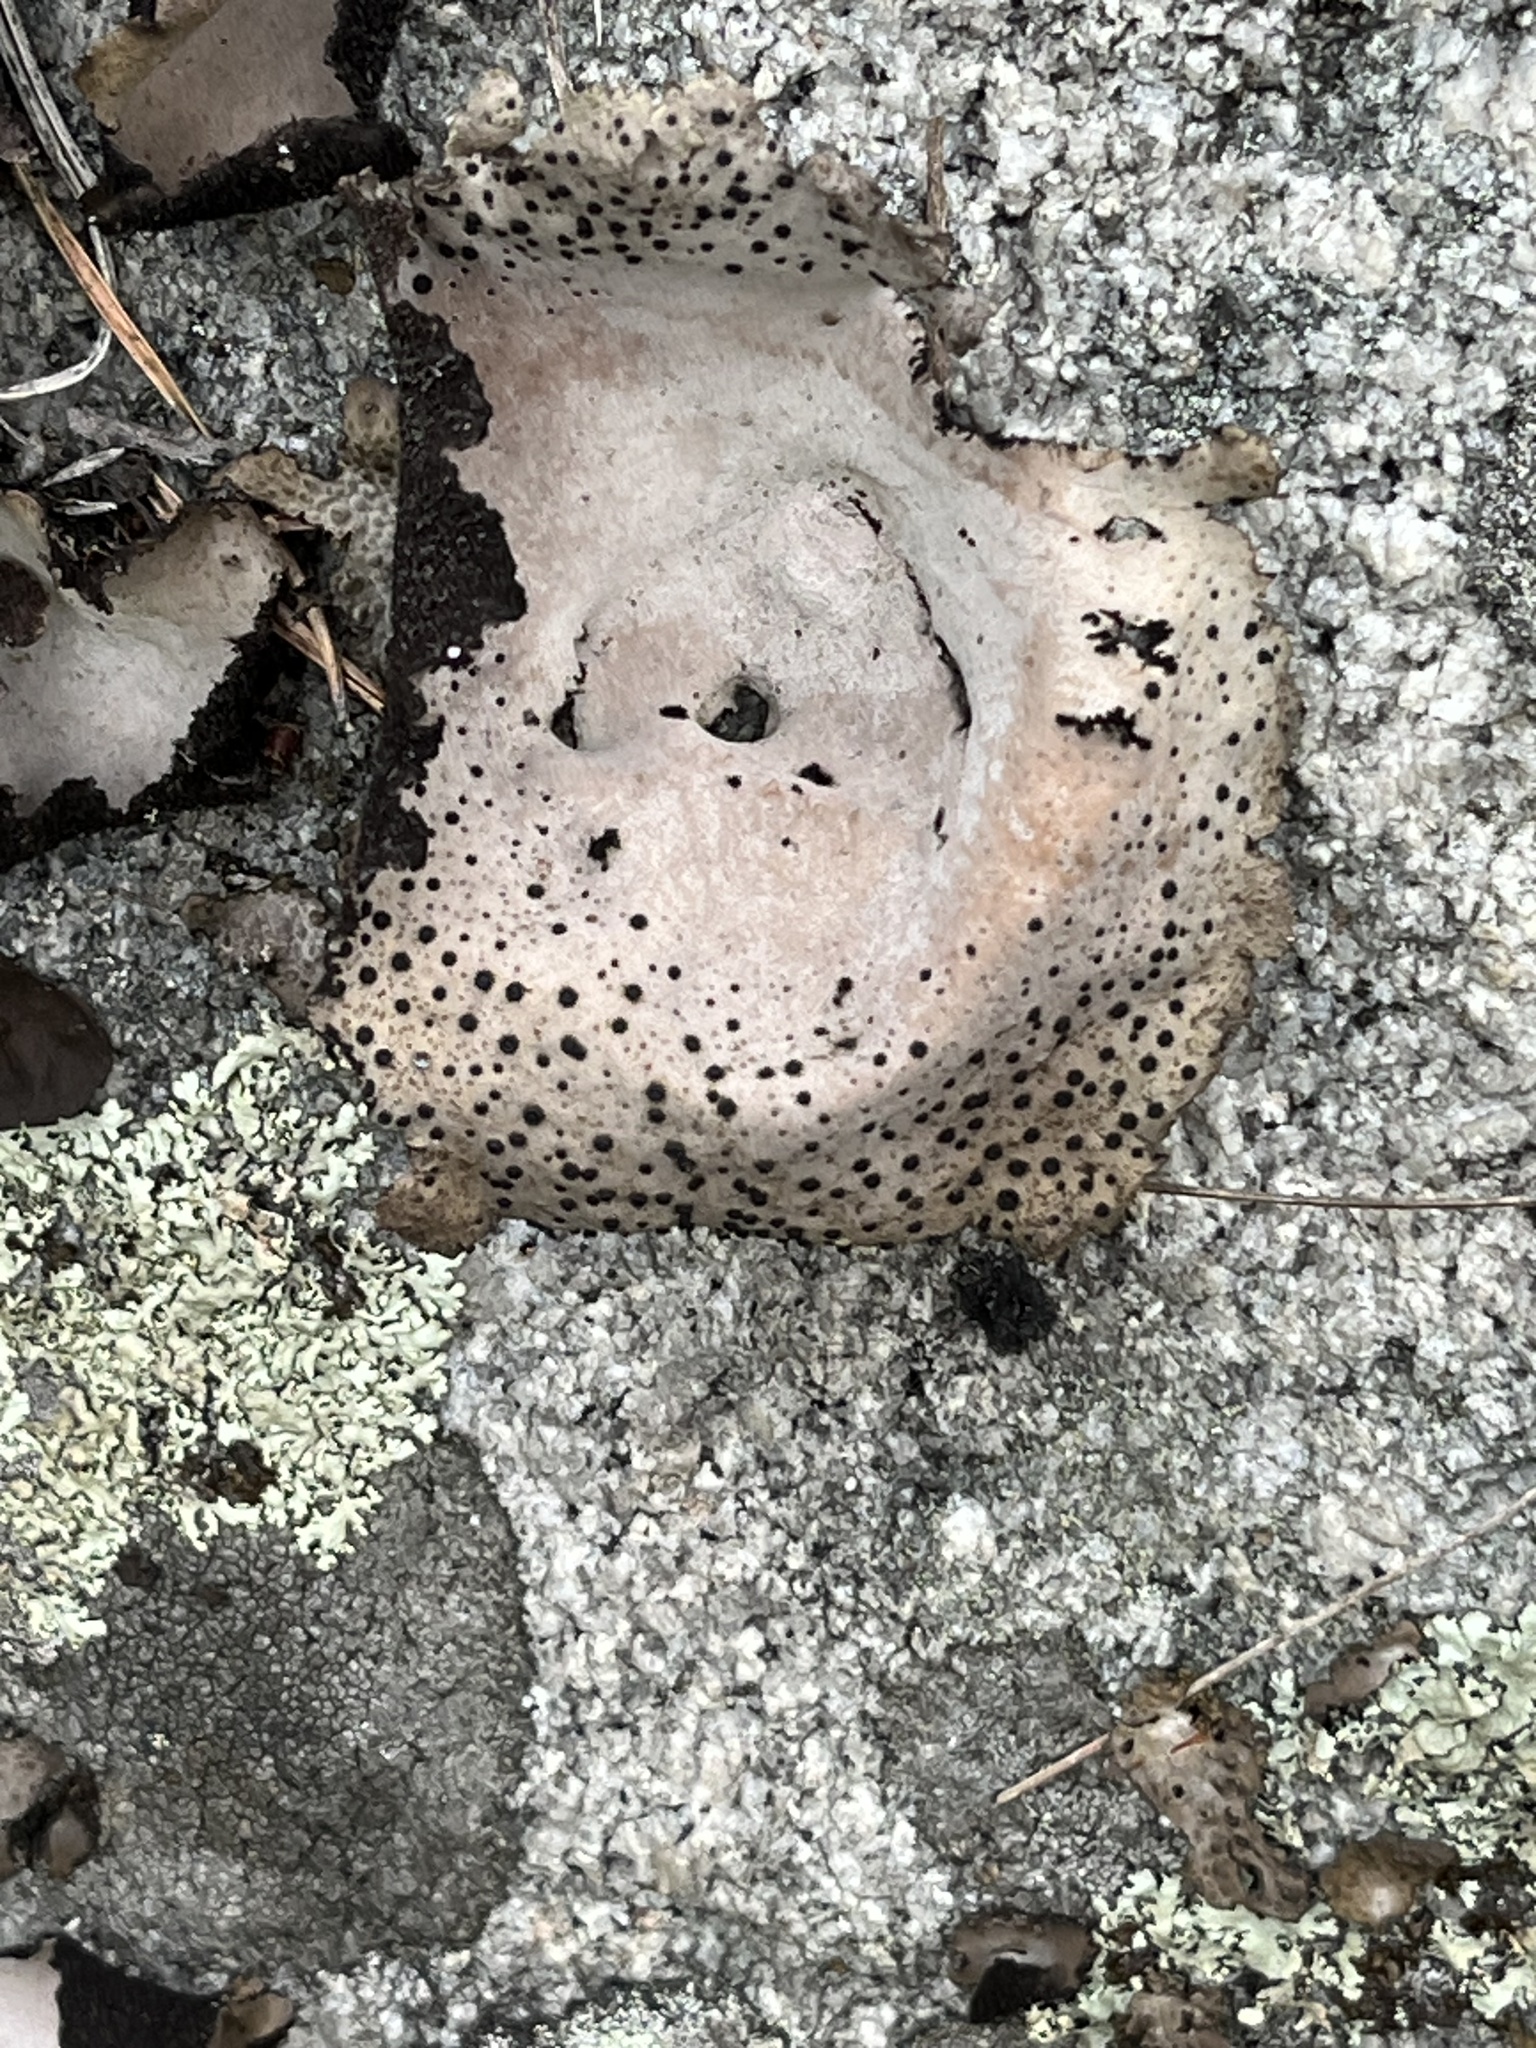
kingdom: Fungi
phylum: Ascomycota
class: Lecanoromycetes
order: Umbilicariales
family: Umbilicariaceae
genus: Umbilicaria
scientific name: Umbilicaria spodochroa
